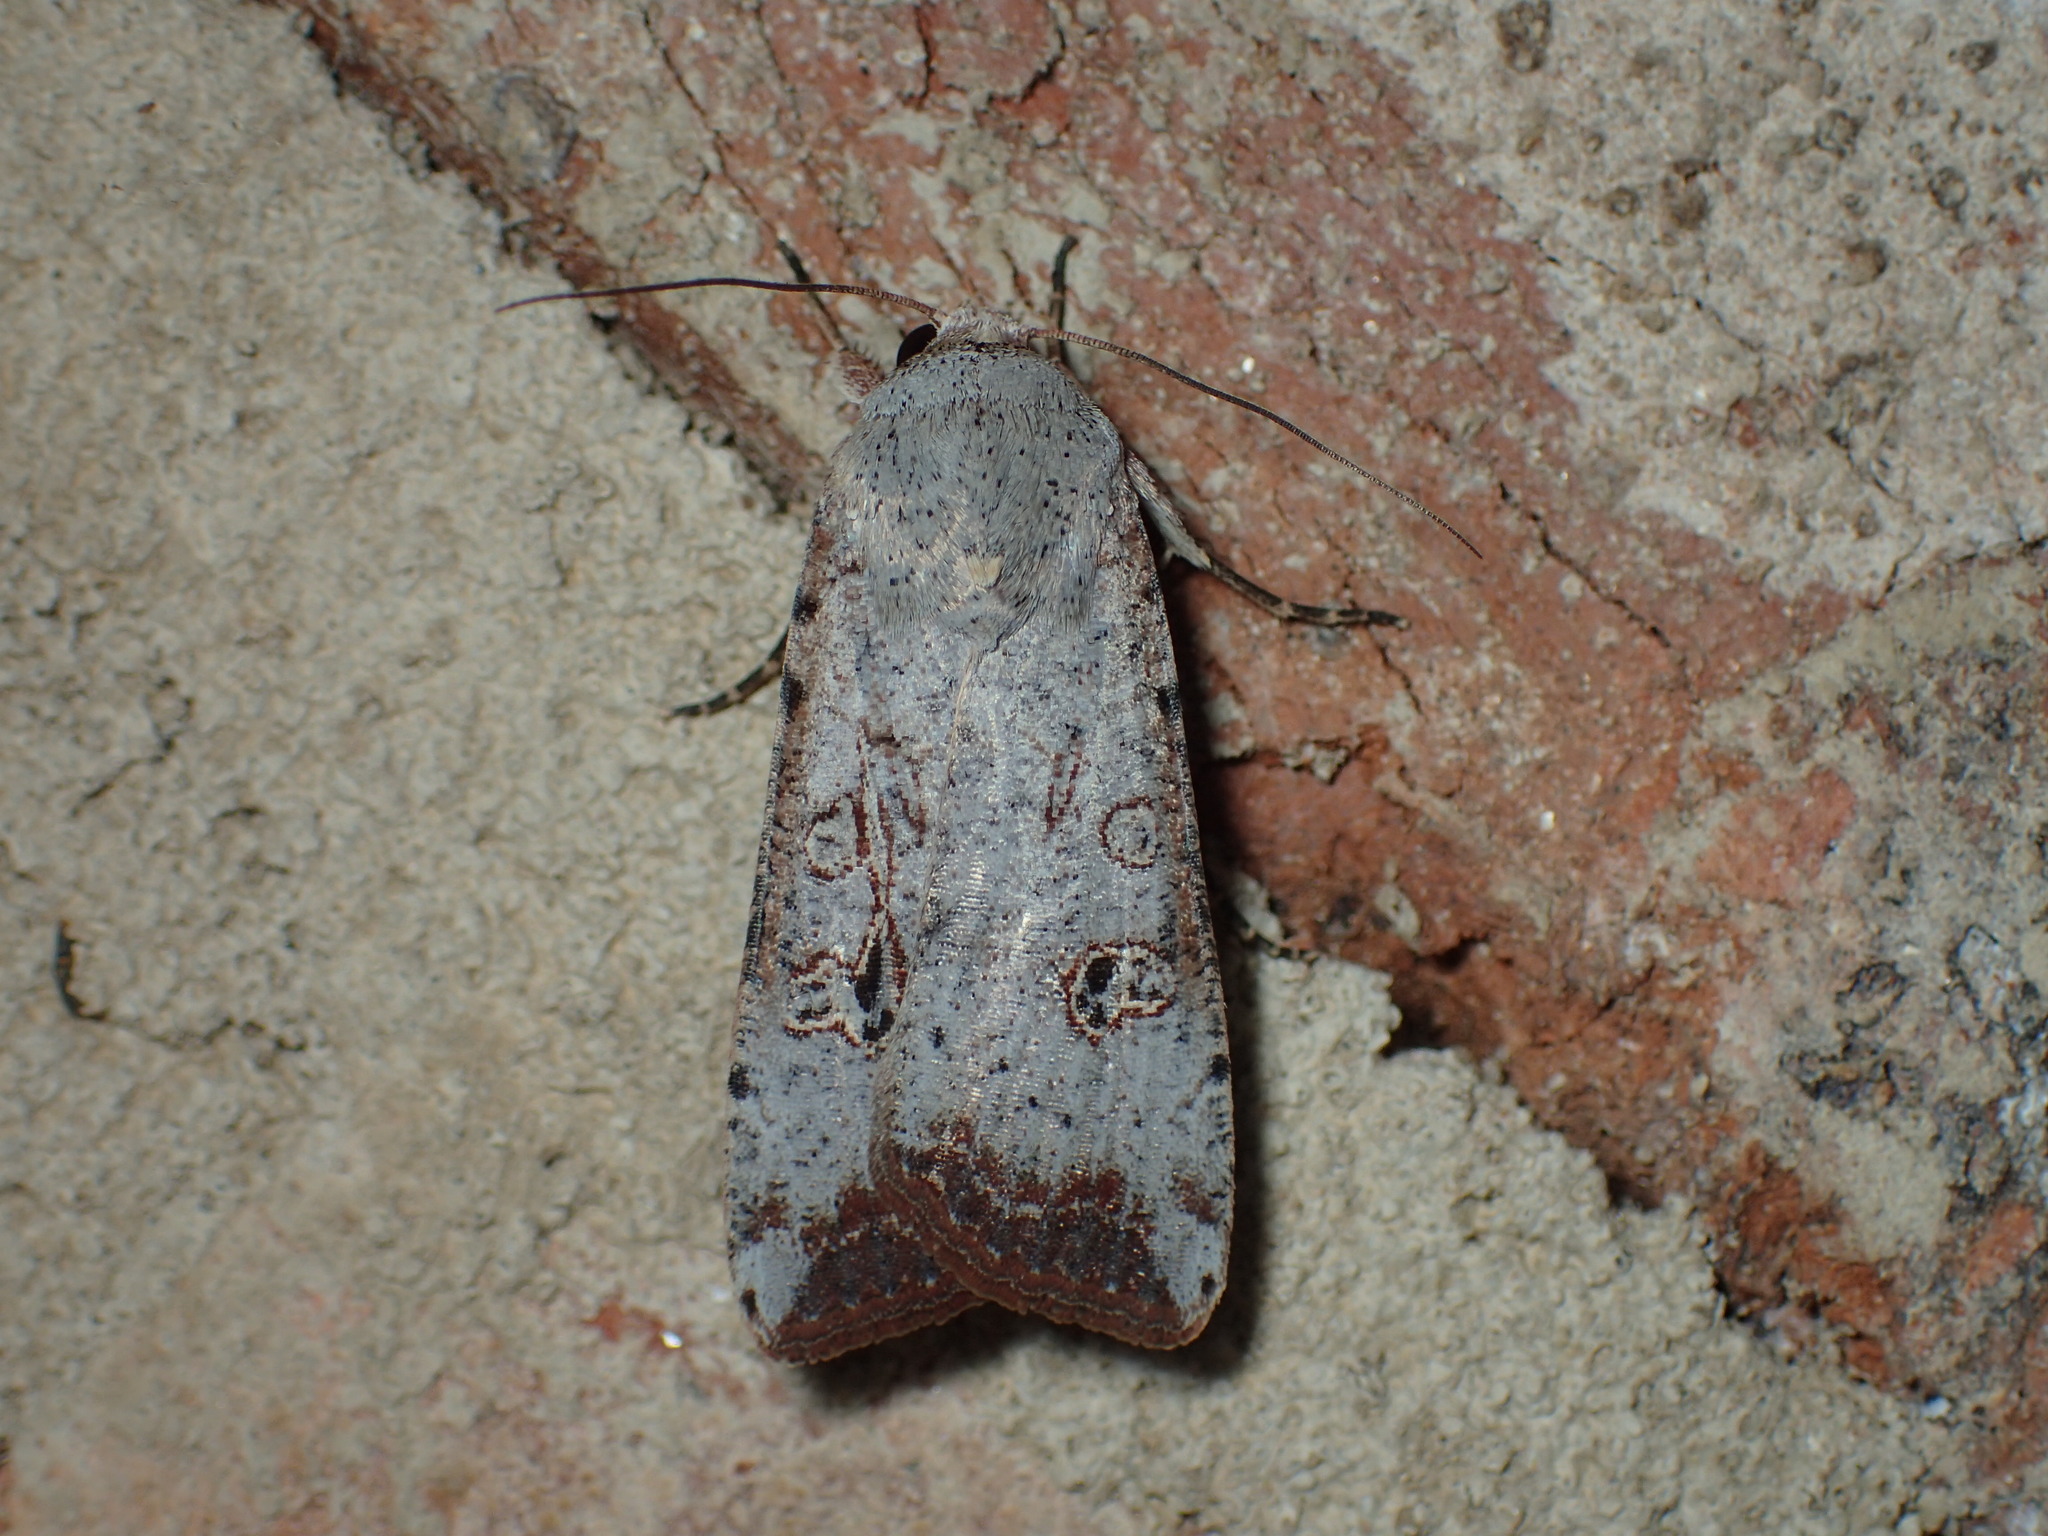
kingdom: Animalia
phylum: Arthropoda
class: Insecta
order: Lepidoptera
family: Noctuidae
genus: Anicla
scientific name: Anicla infecta
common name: Green cutworm
